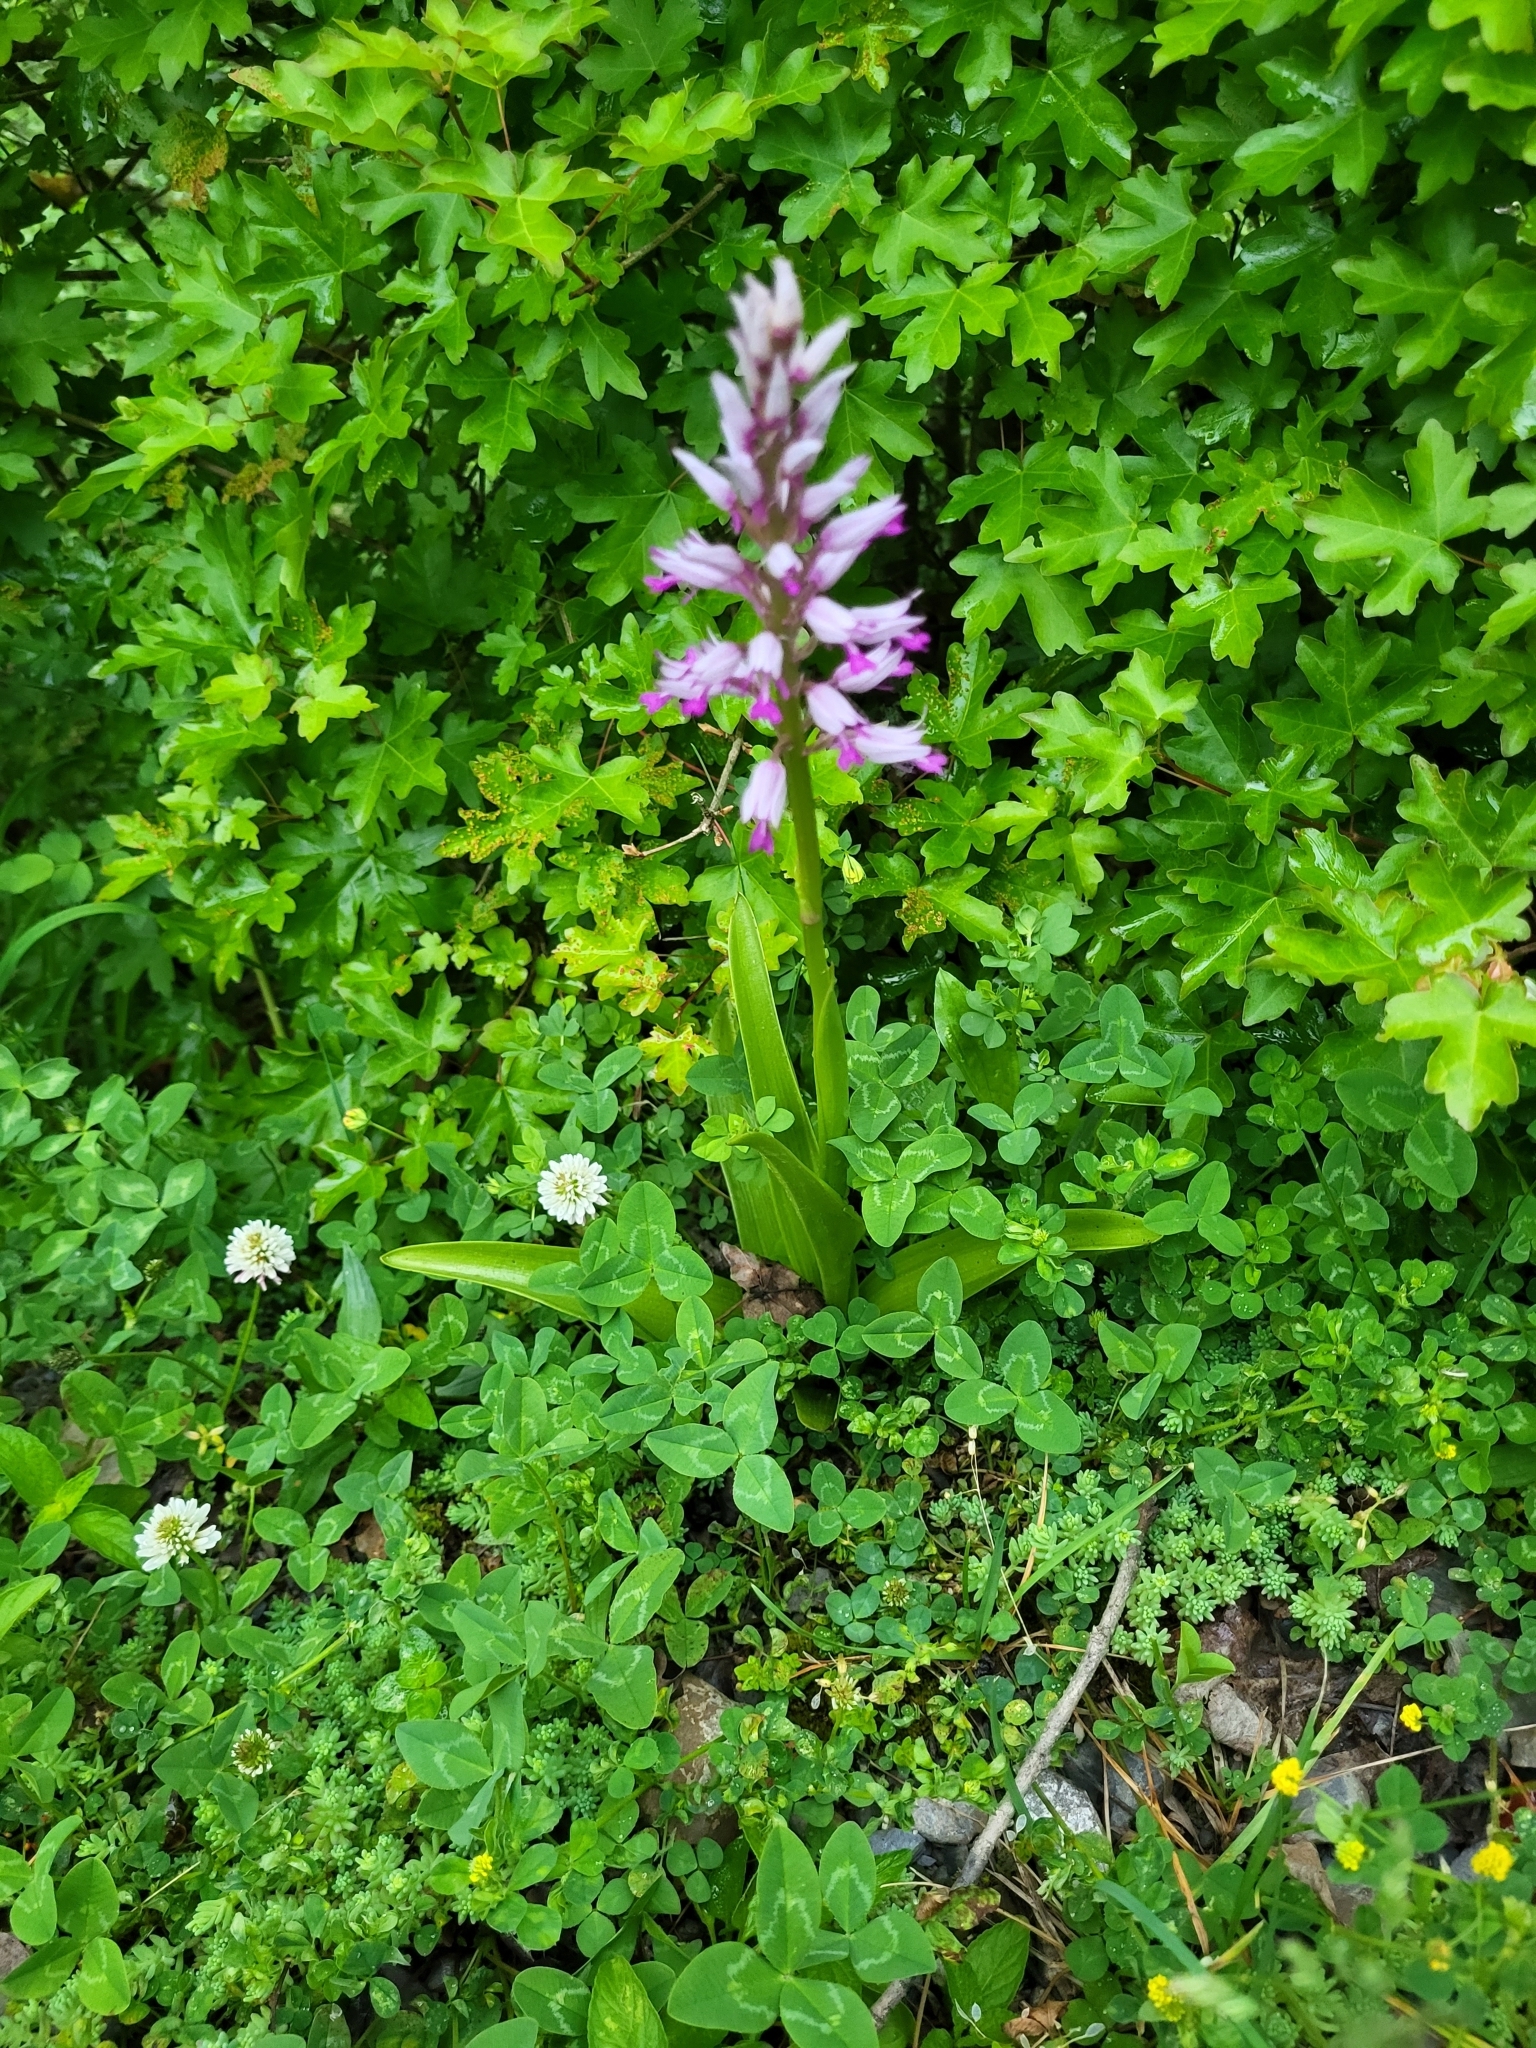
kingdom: Plantae
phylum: Tracheophyta
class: Liliopsida
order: Asparagales
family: Orchidaceae
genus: Orchis
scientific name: Orchis simia
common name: Monkey orchid
